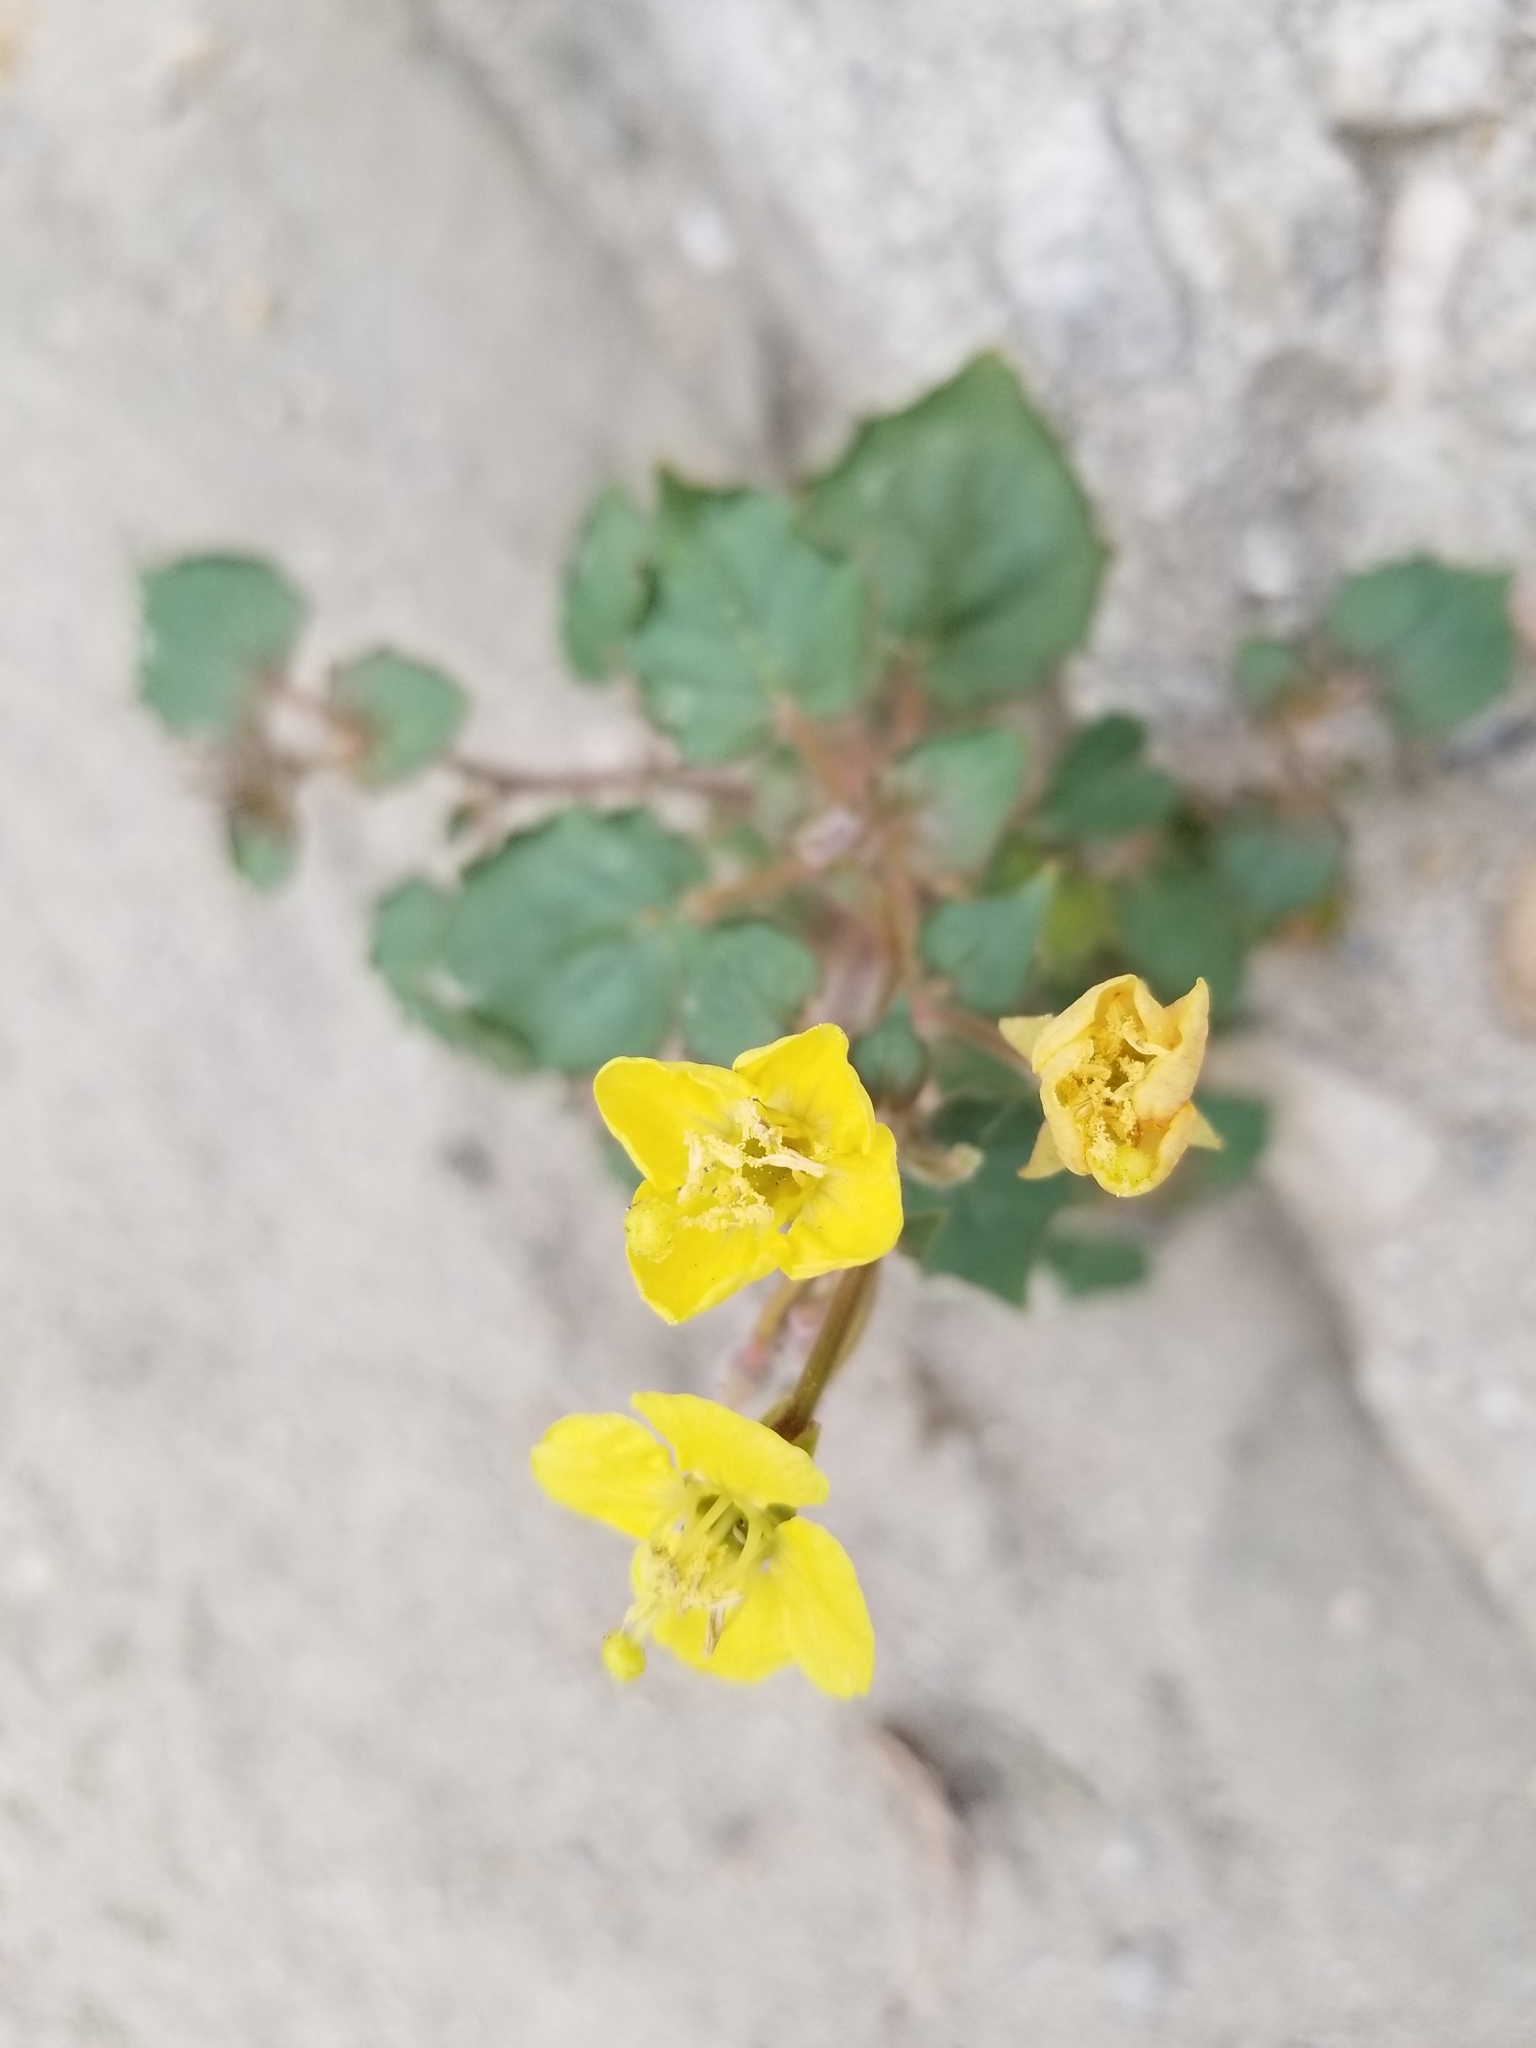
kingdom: Plantae
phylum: Tracheophyta
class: Magnoliopsida
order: Myrtales
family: Onagraceae
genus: Chylismia
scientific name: Chylismia cardiophylla
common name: Heartleaf suncup
